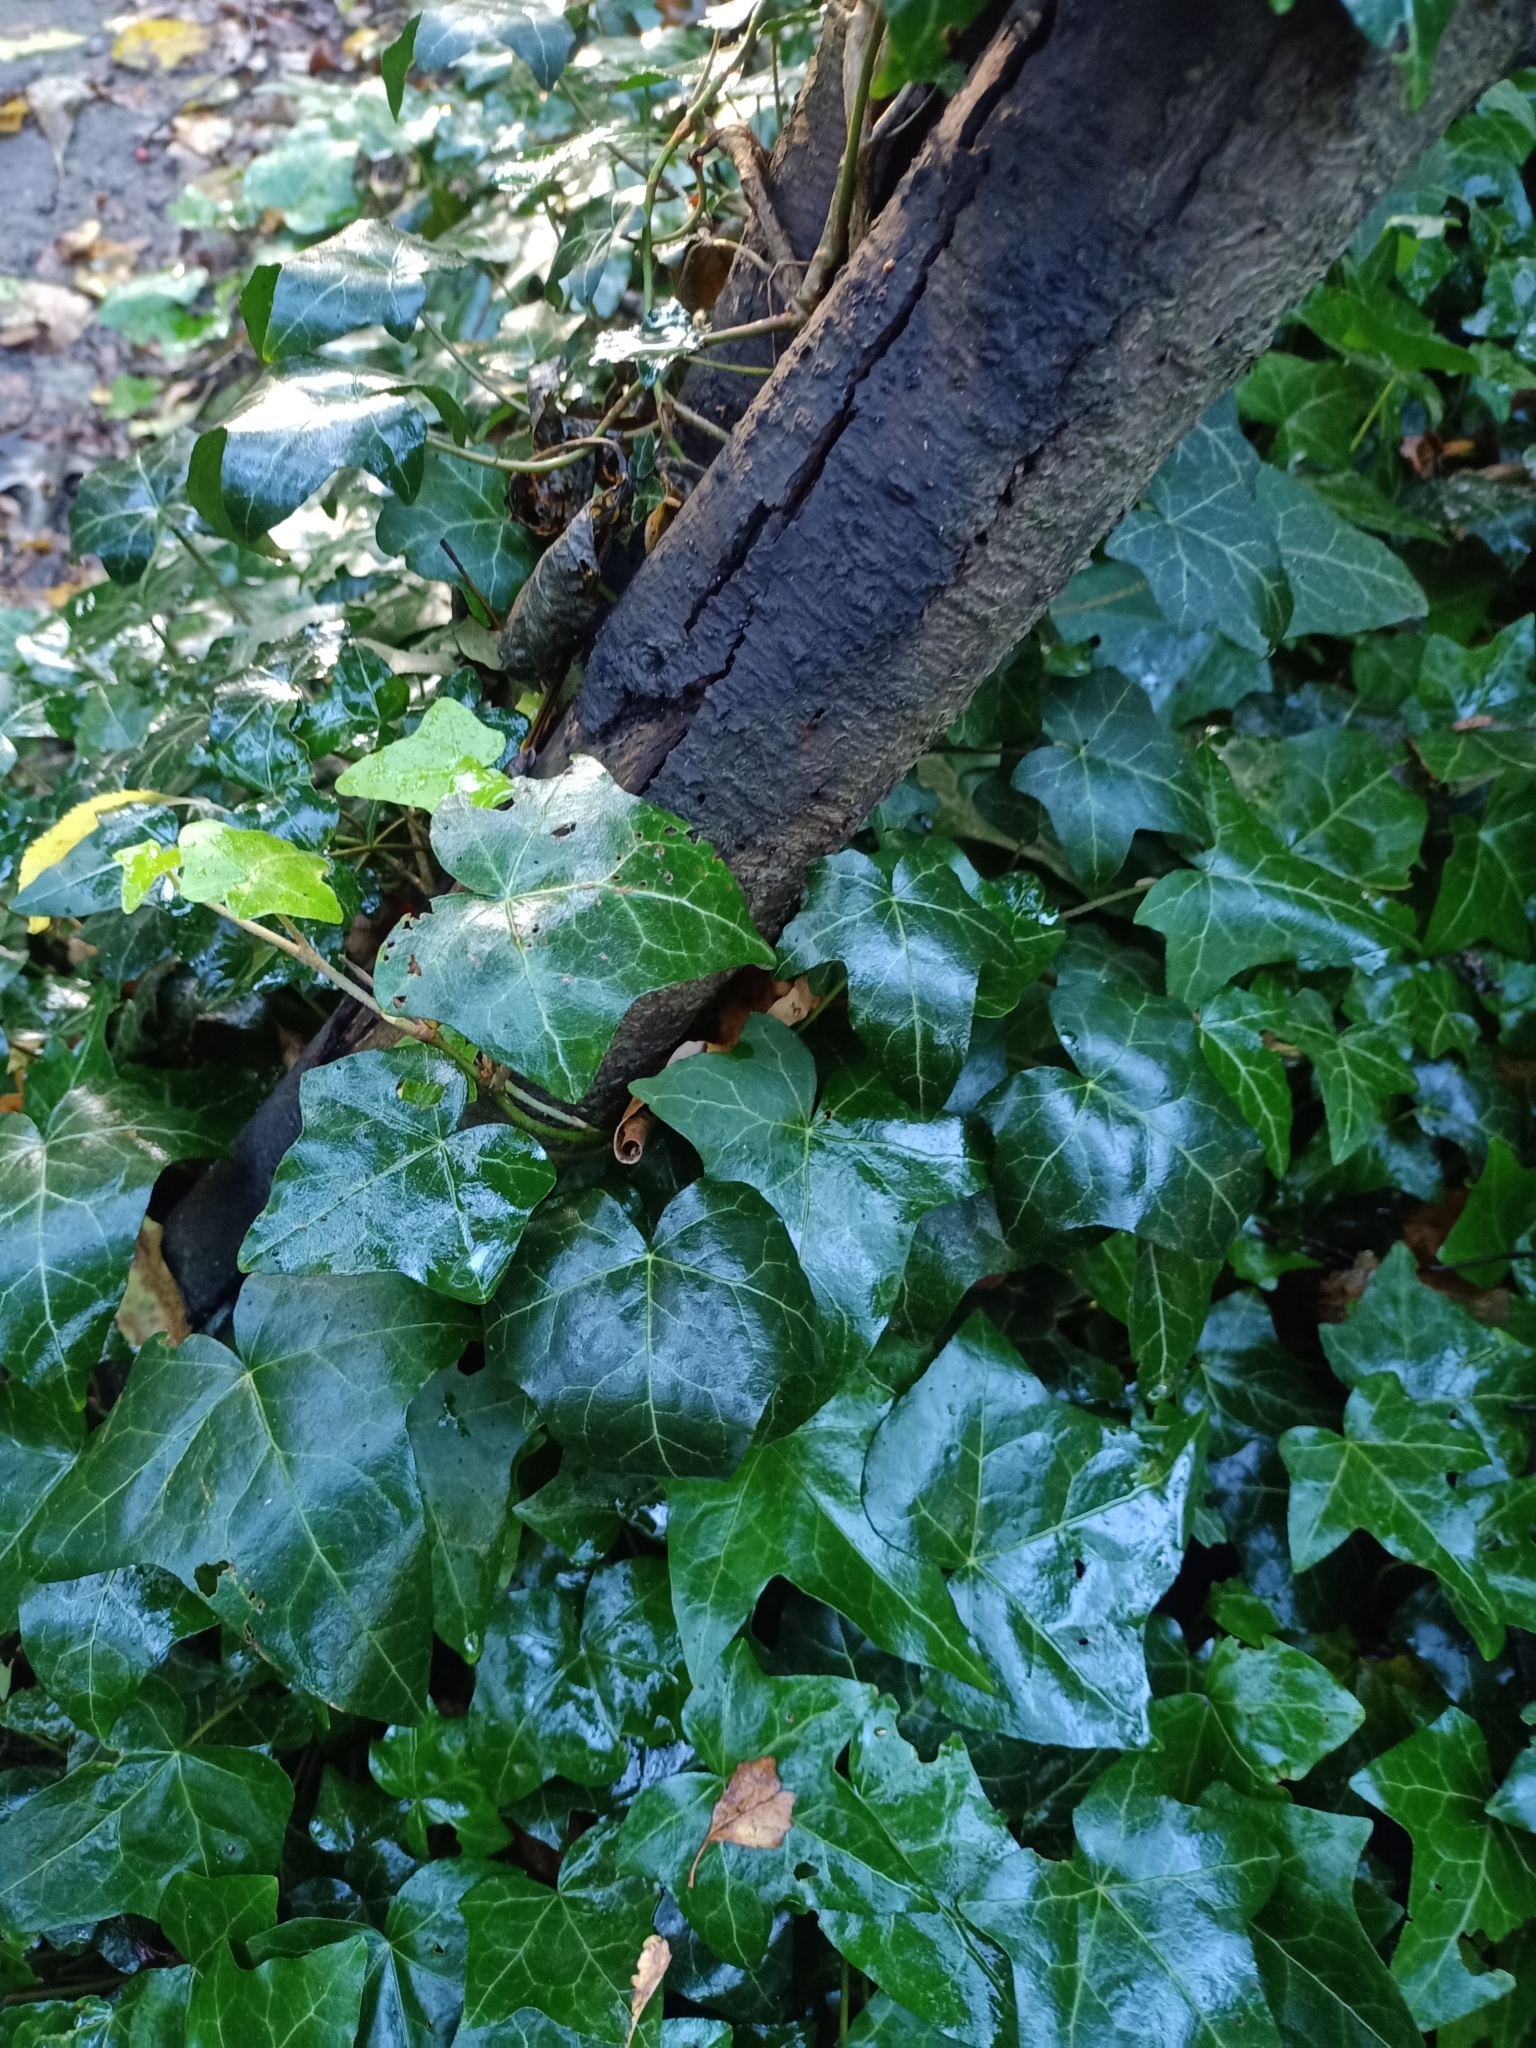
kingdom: Plantae
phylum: Tracheophyta
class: Magnoliopsida
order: Apiales
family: Araliaceae
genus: Hedera
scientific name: Hedera helix
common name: Ivy
